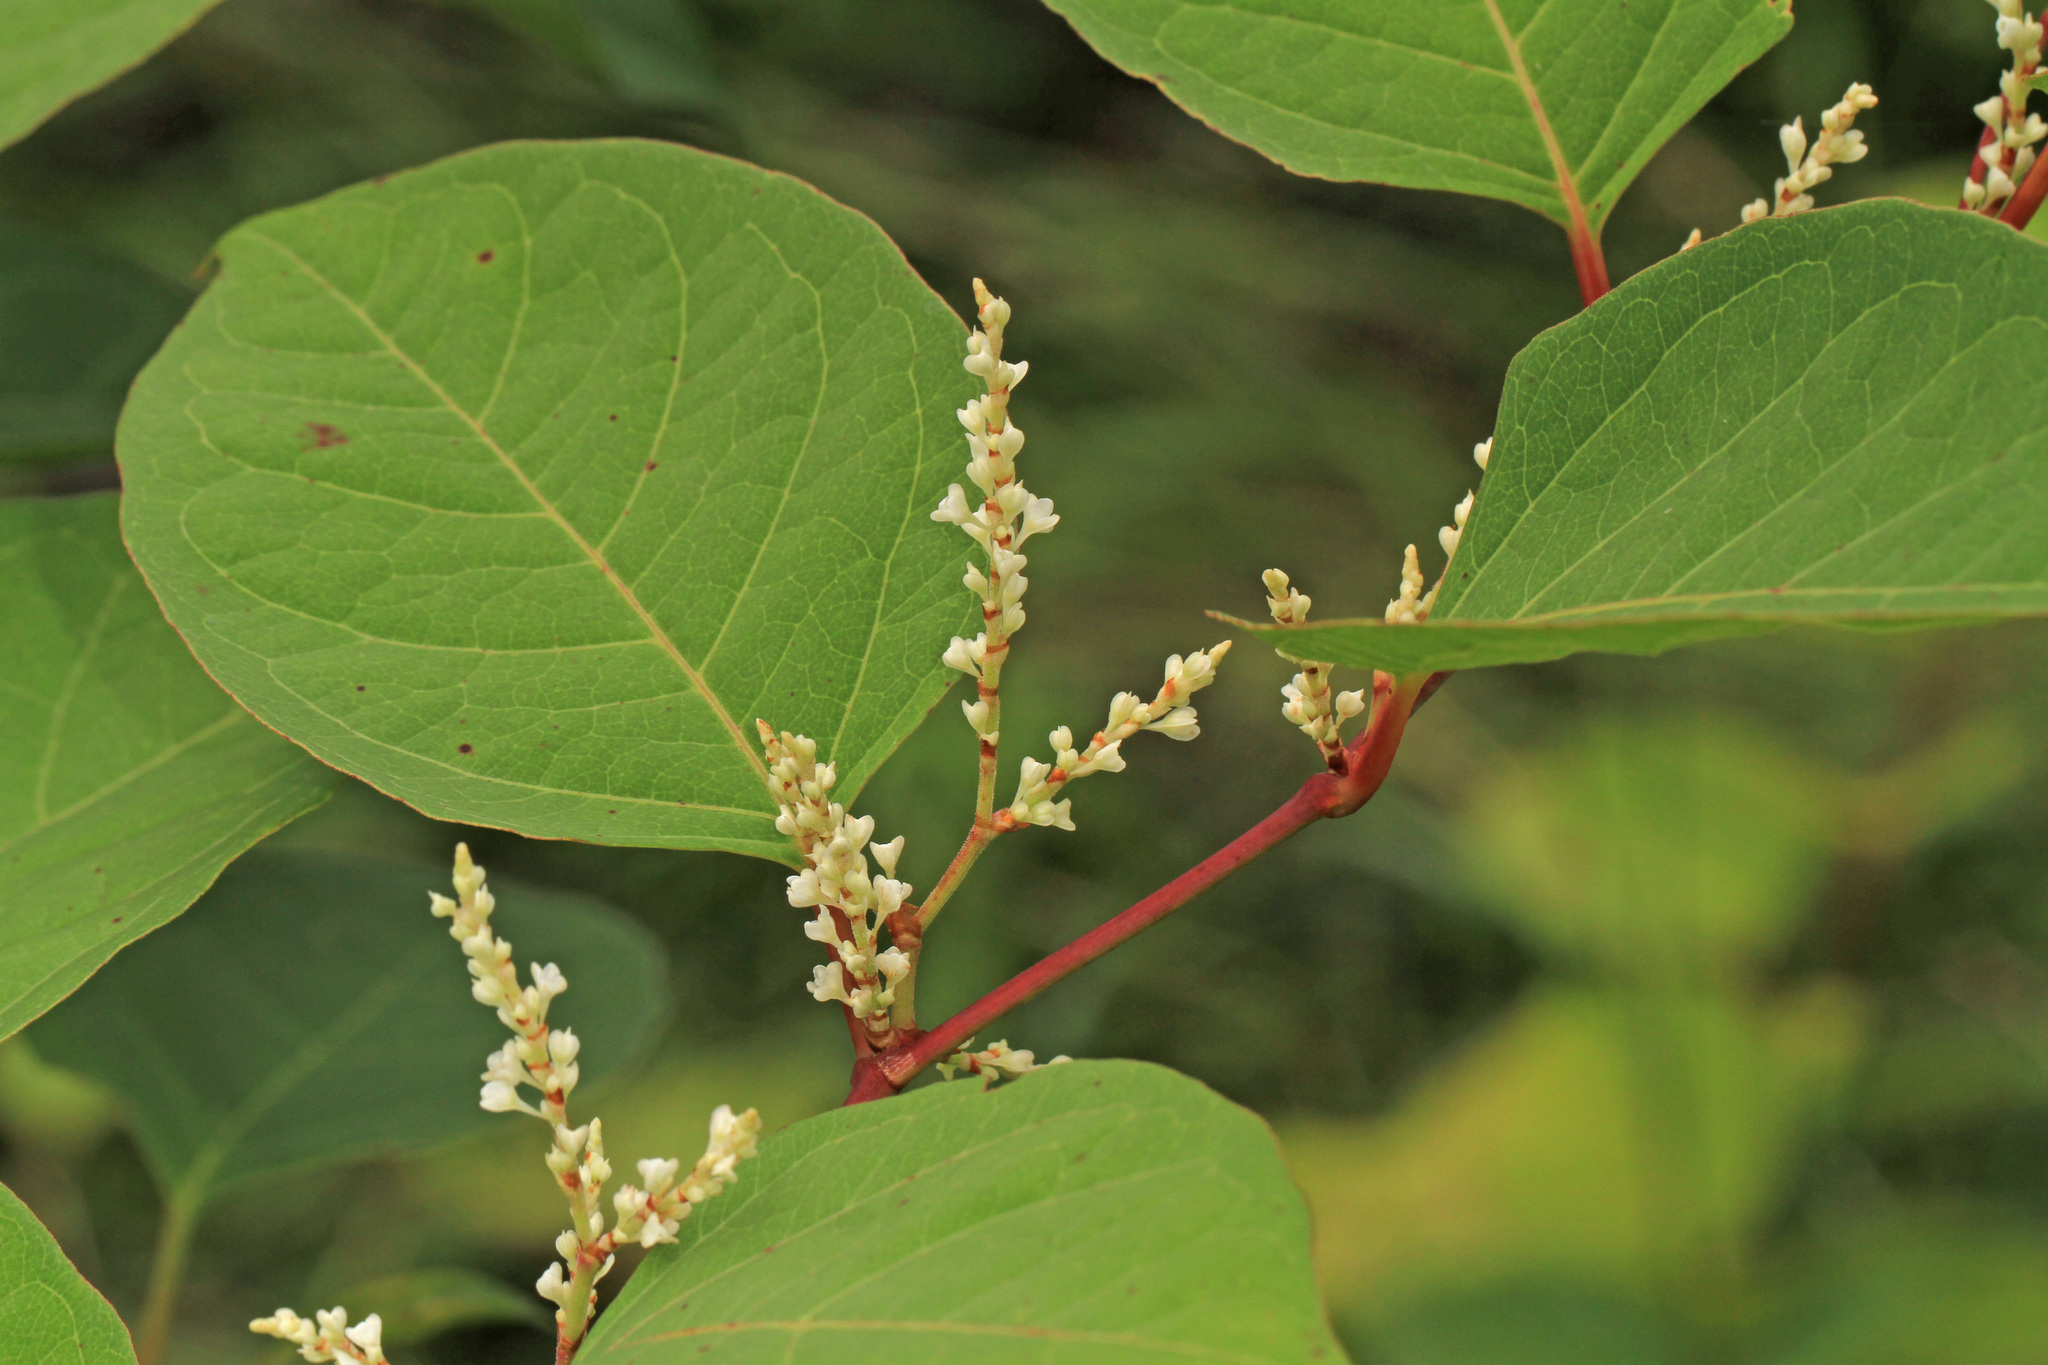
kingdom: Plantae
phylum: Tracheophyta
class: Magnoliopsida
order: Caryophyllales
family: Polygonaceae
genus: Reynoutria
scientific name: Reynoutria japonica
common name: Japanese knotweed
